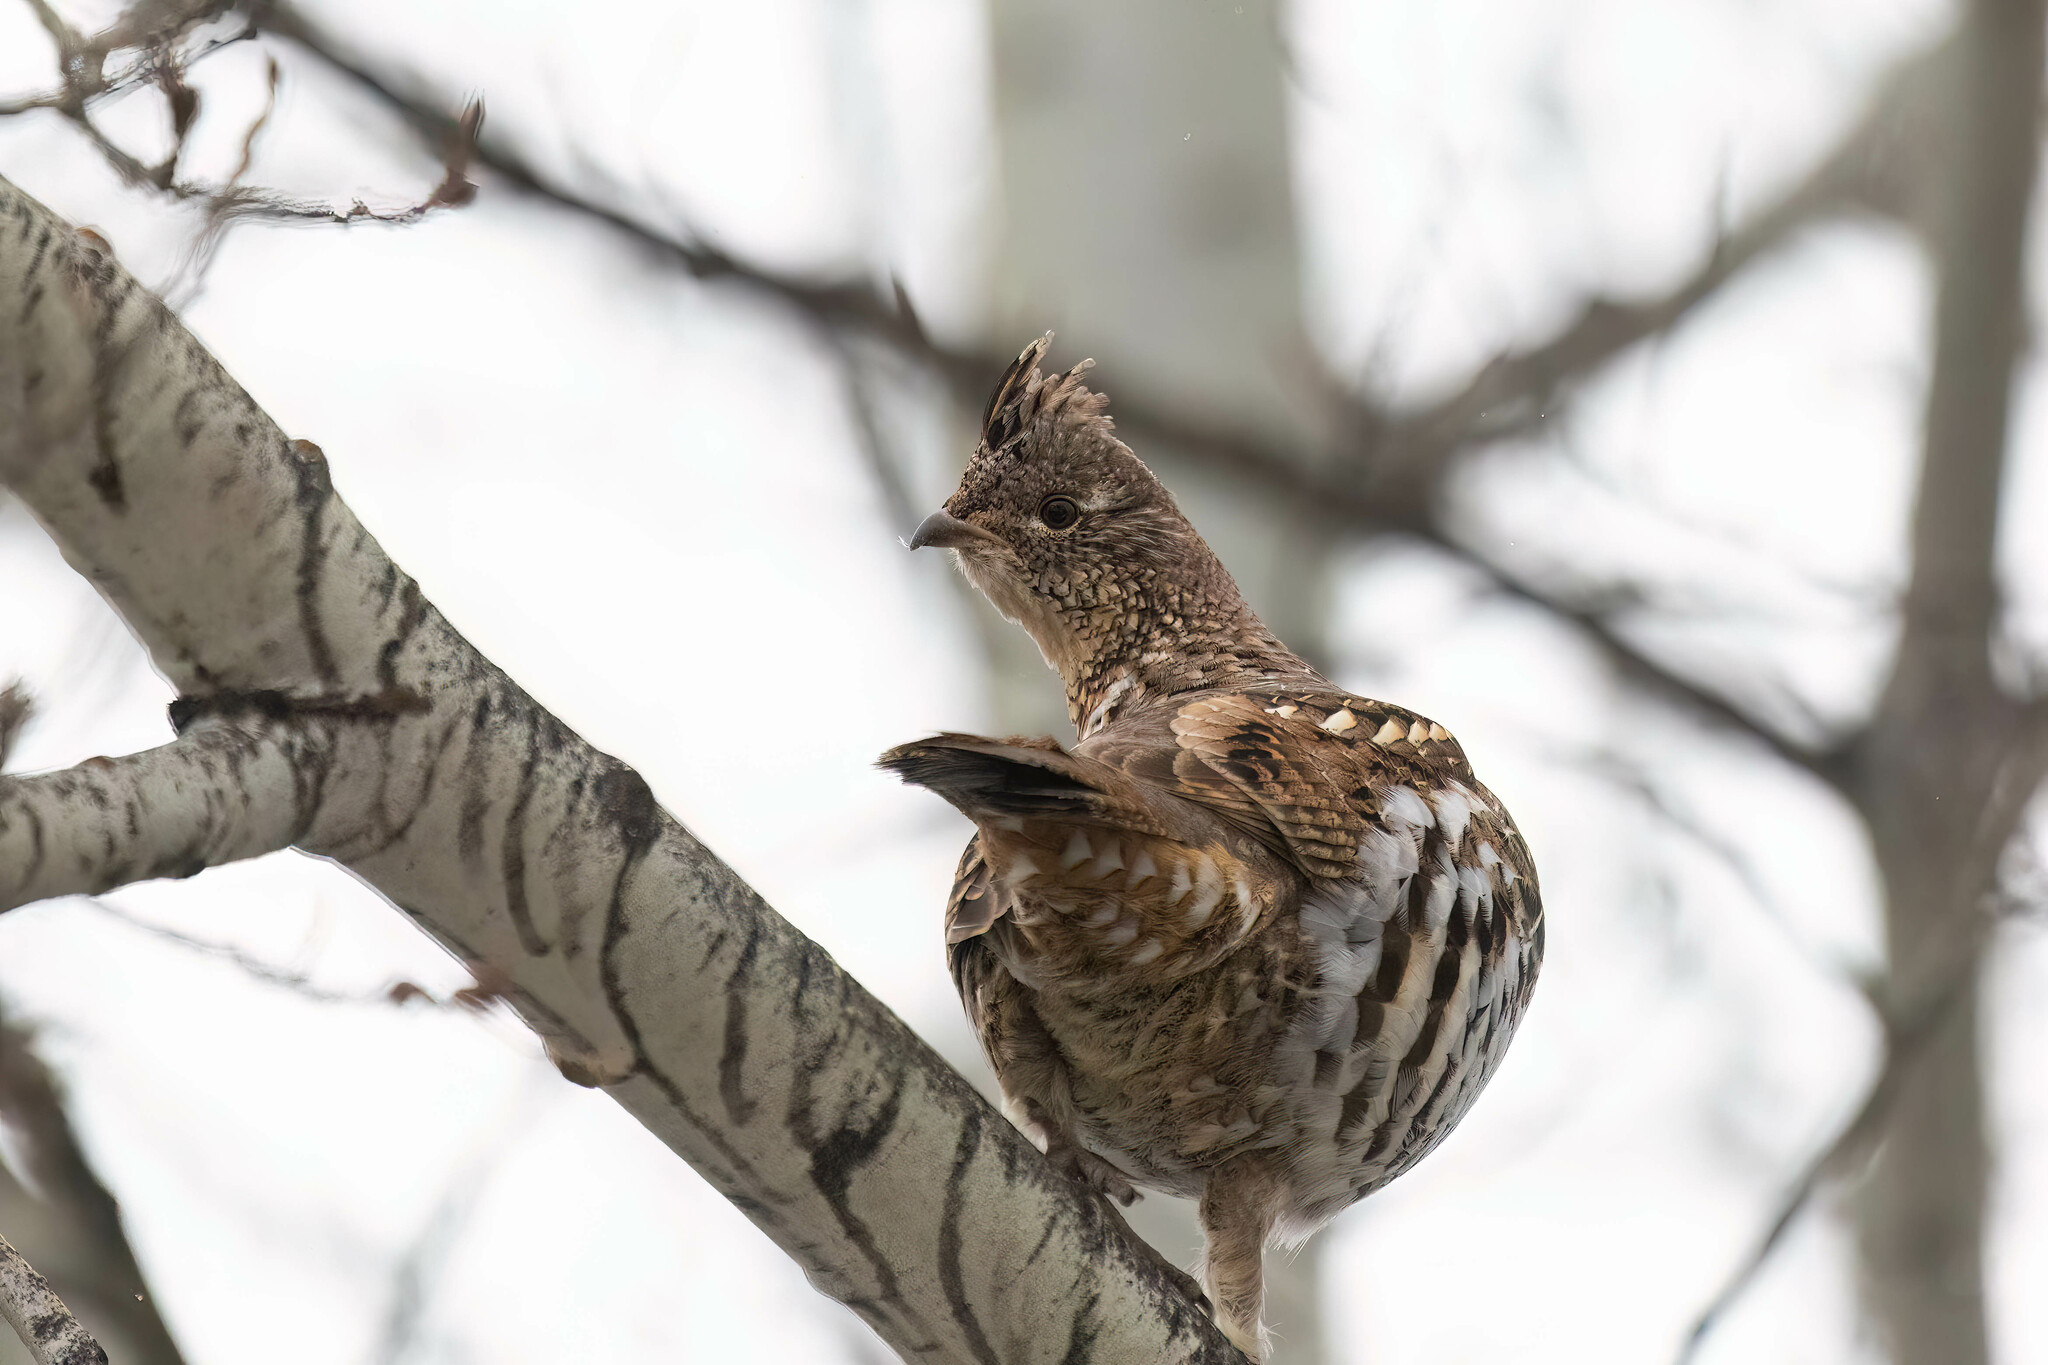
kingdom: Animalia
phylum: Chordata
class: Aves
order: Galliformes
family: Phasianidae
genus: Bonasa
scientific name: Bonasa umbellus
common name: Ruffed grouse
